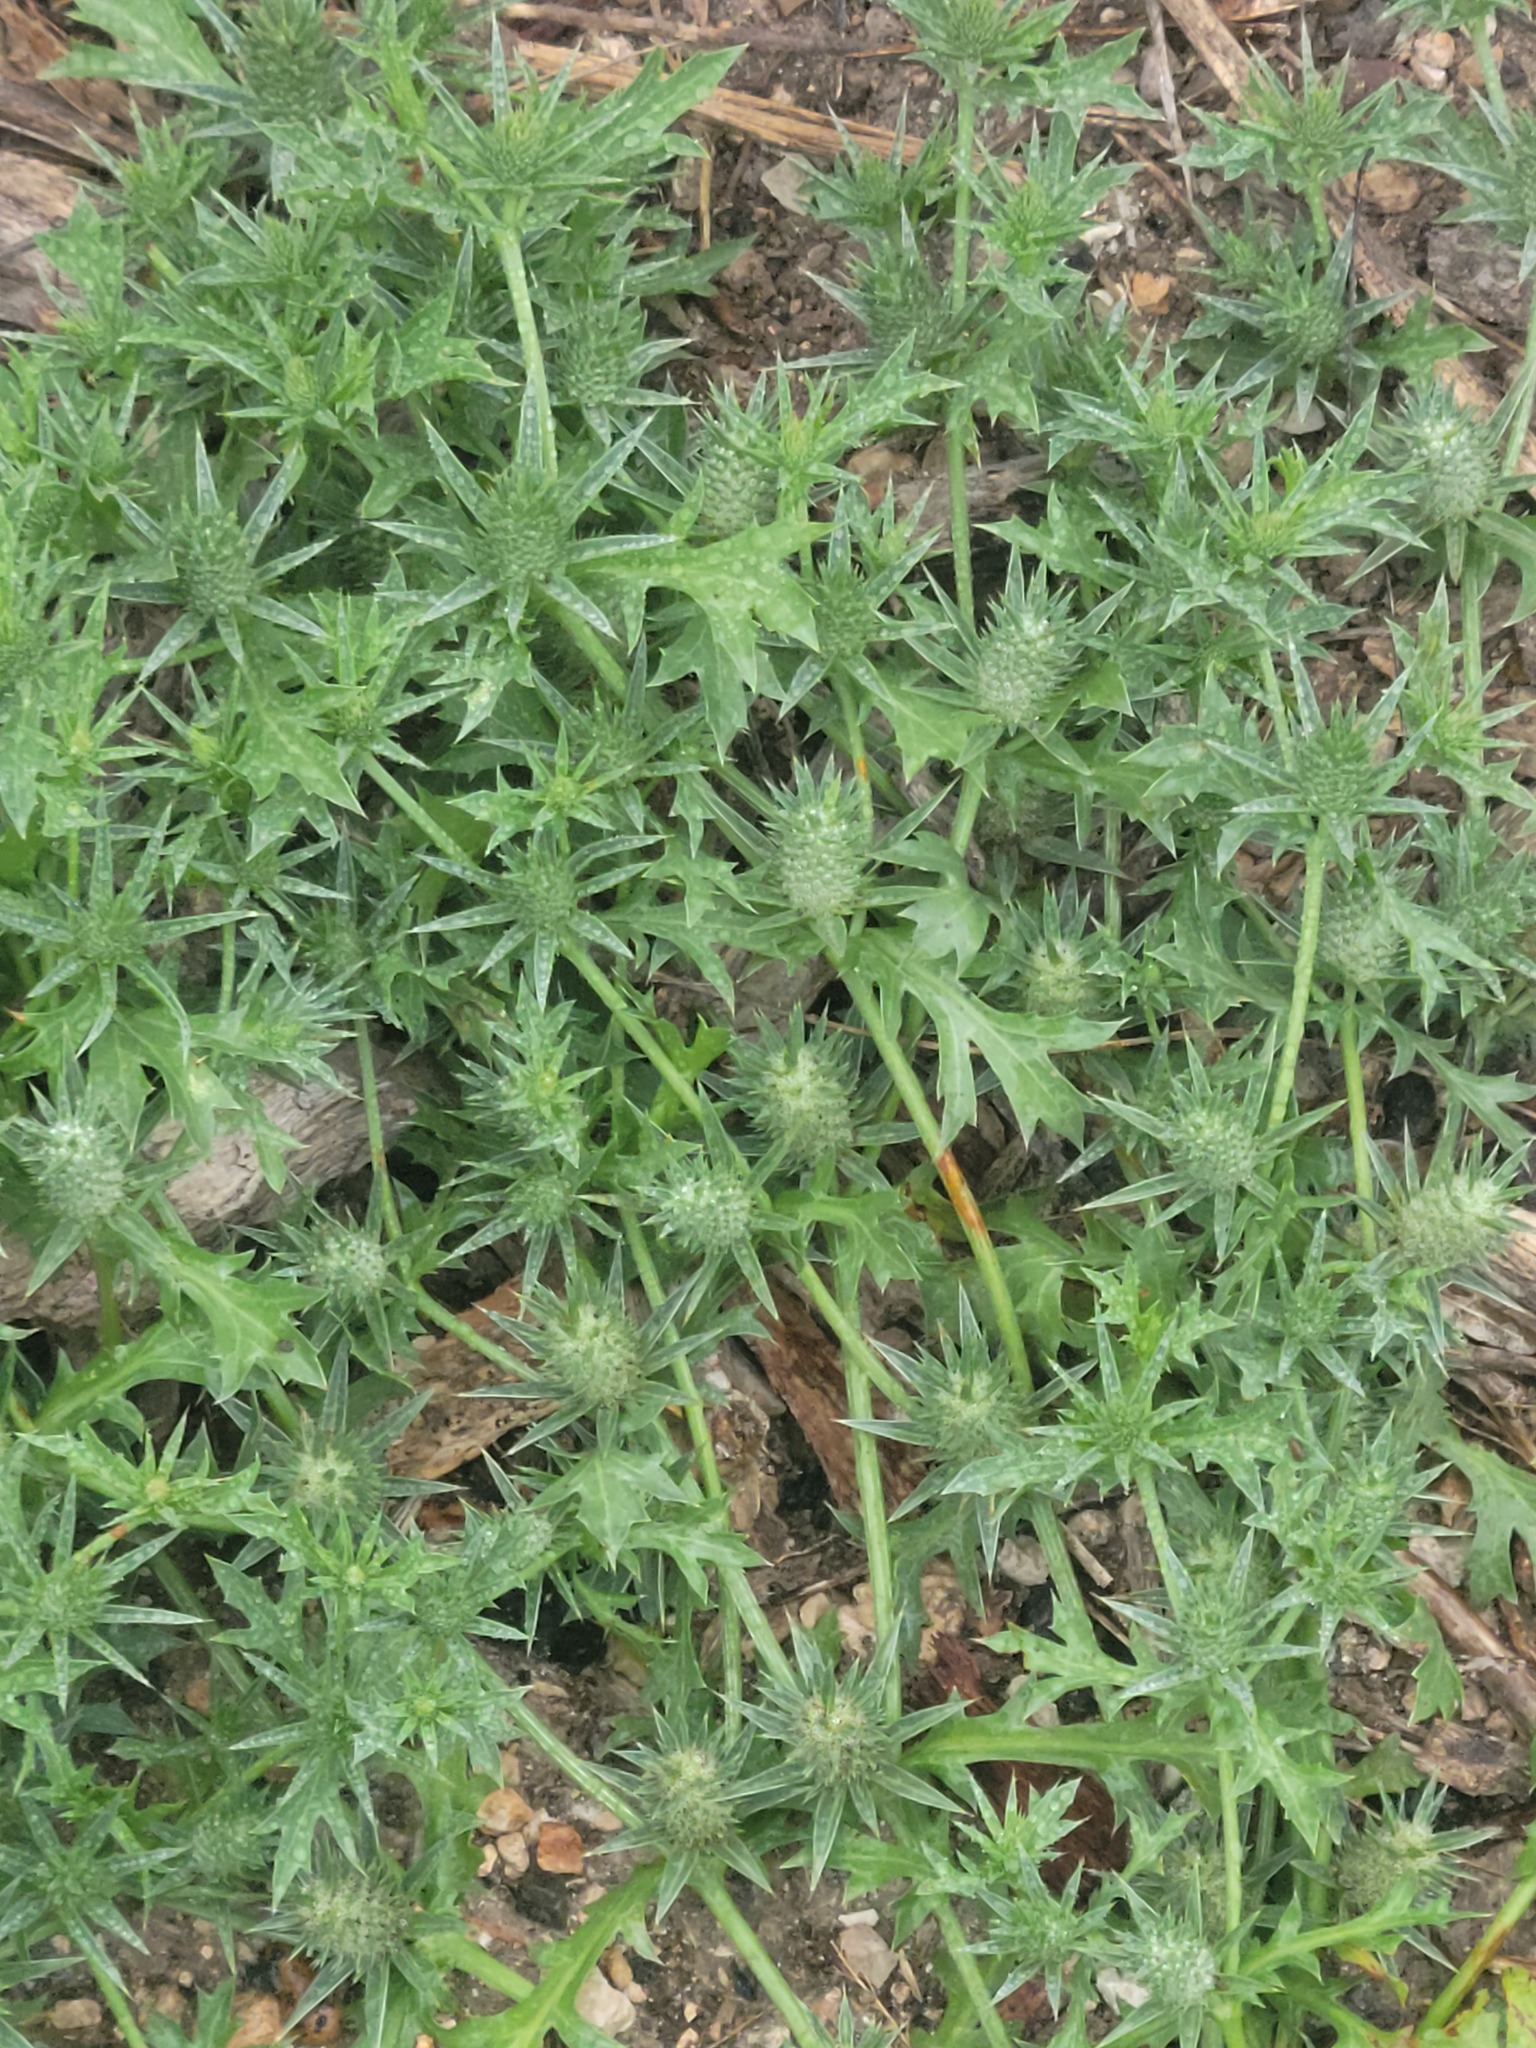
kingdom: Plantae
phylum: Tracheophyta
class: Magnoliopsida
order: Apiales
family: Apiaceae
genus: Eryngium
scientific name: Eryngium nasturtiifolium
